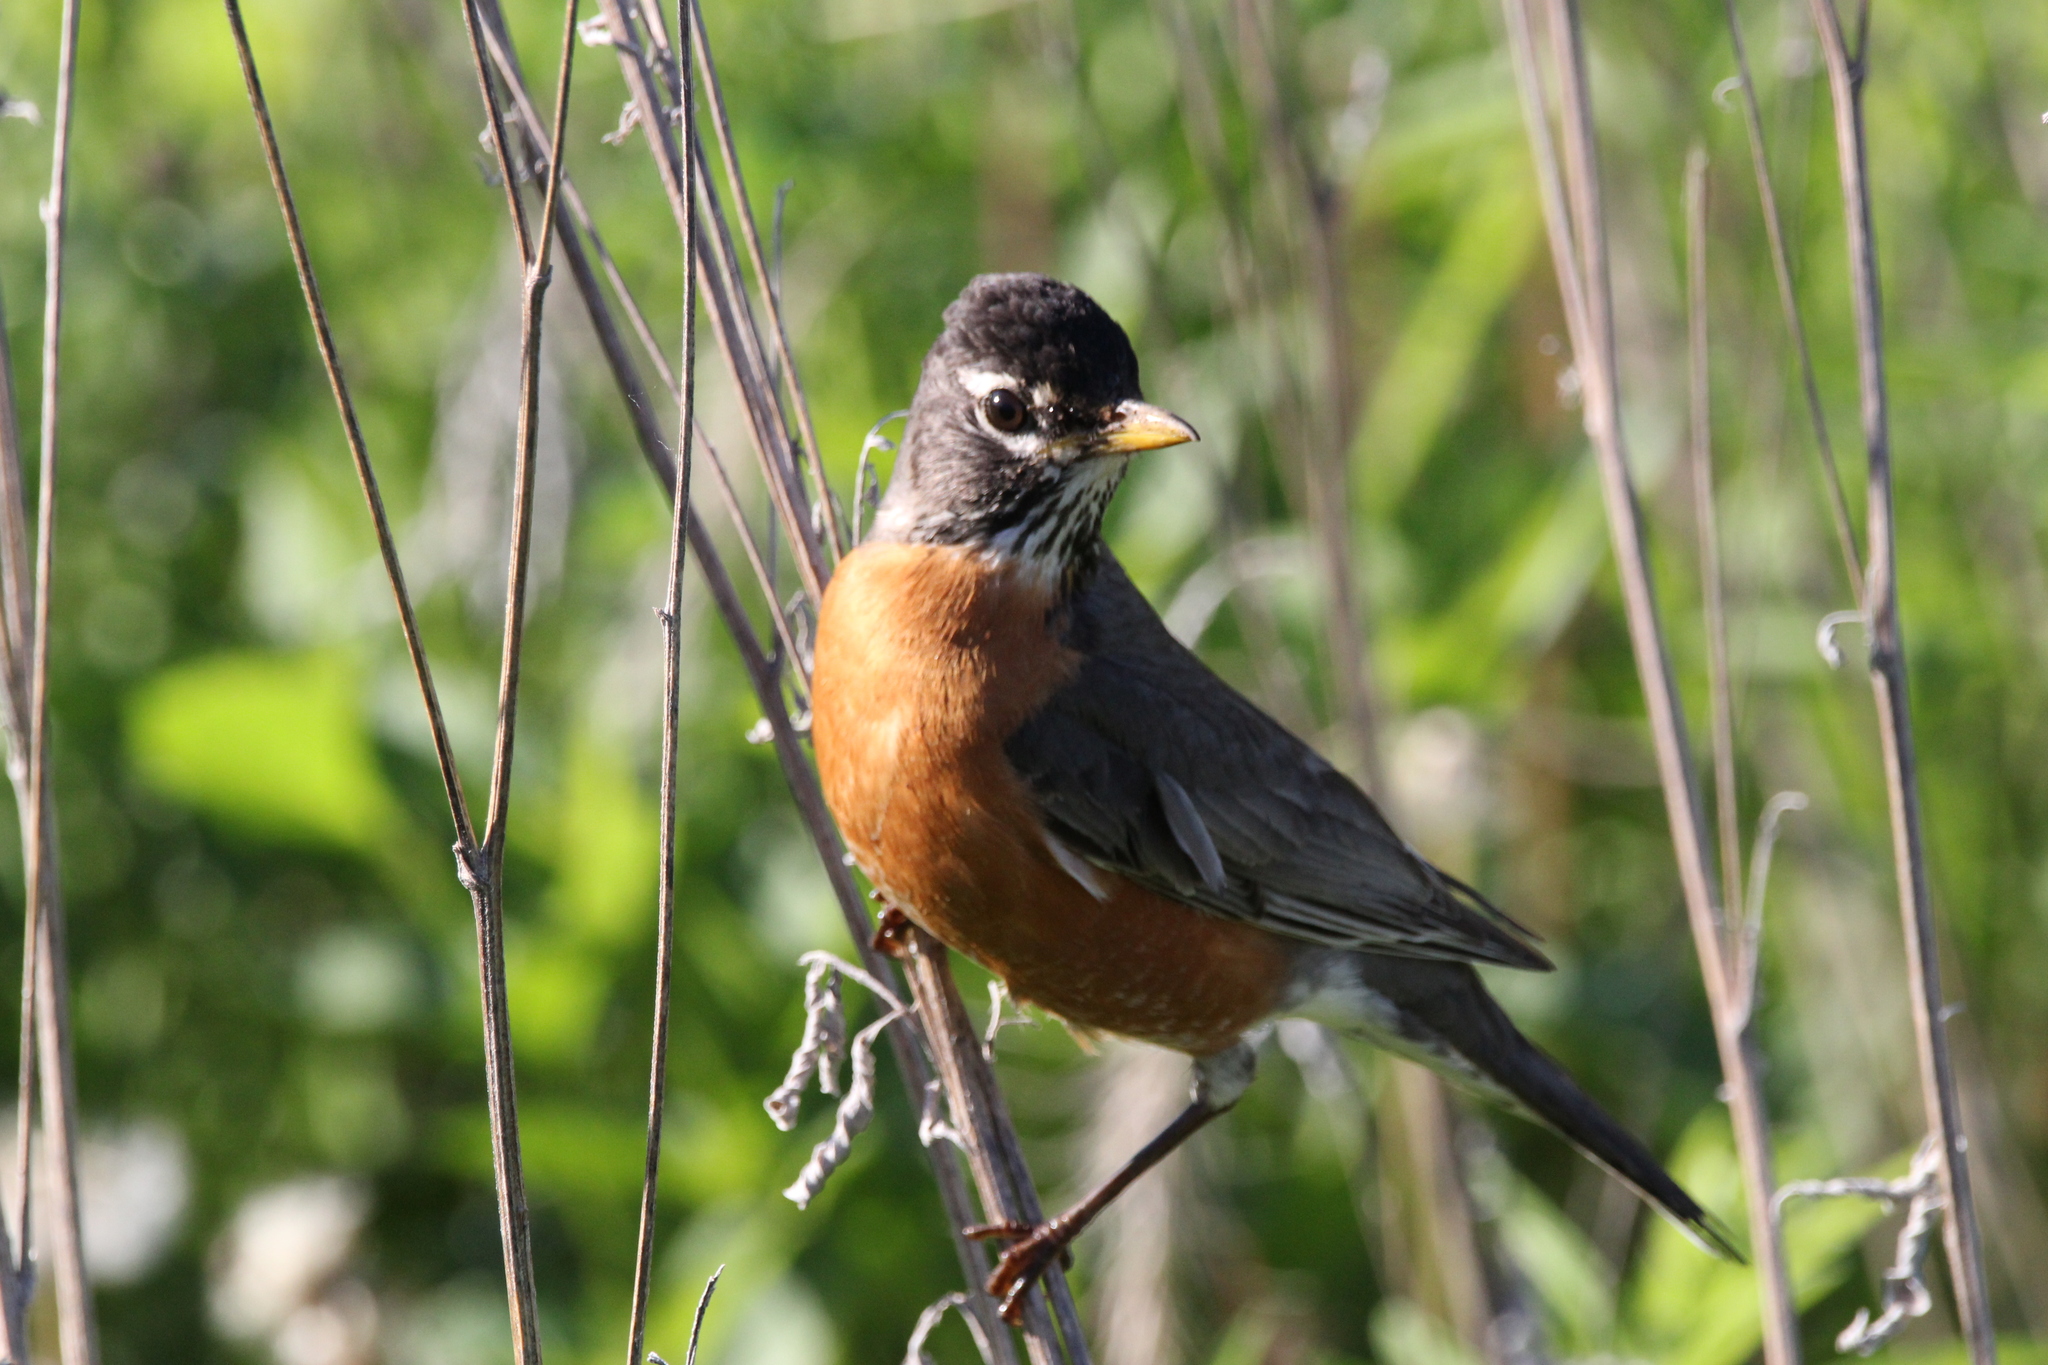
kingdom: Animalia
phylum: Chordata
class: Aves
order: Passeriformes
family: Turdidae
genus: Turdus
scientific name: Turdus migratorius
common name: American robin
